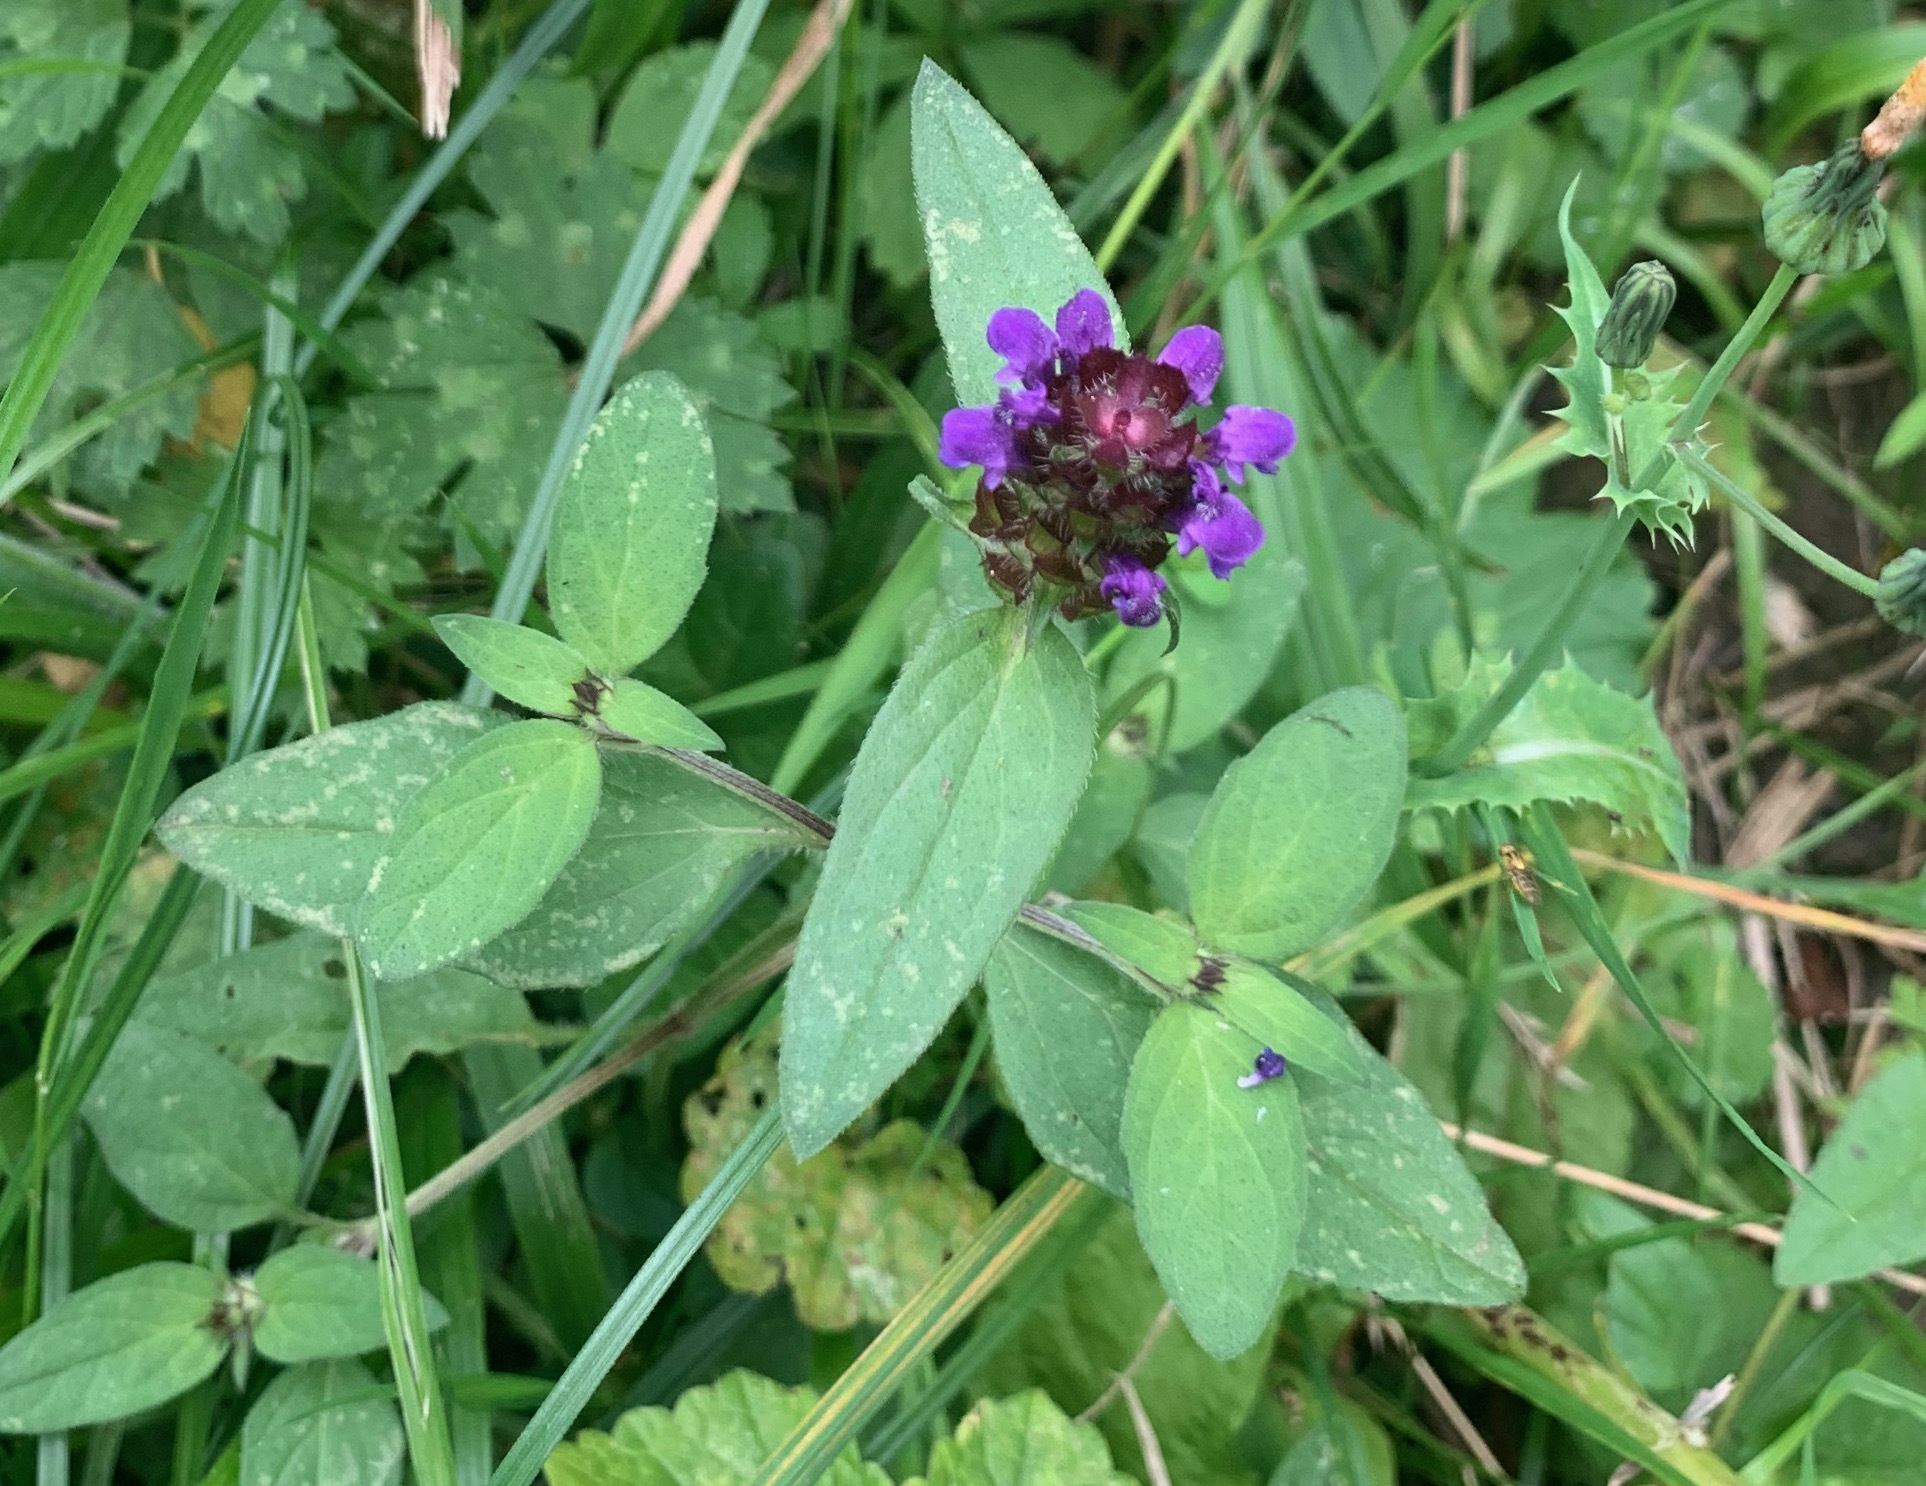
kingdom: Plantae
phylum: Tracheophyta
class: Magnoliopsida
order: Lamiales
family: Lamiaceae
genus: Prunella
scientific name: Prunella vulgaris
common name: Heal-all
